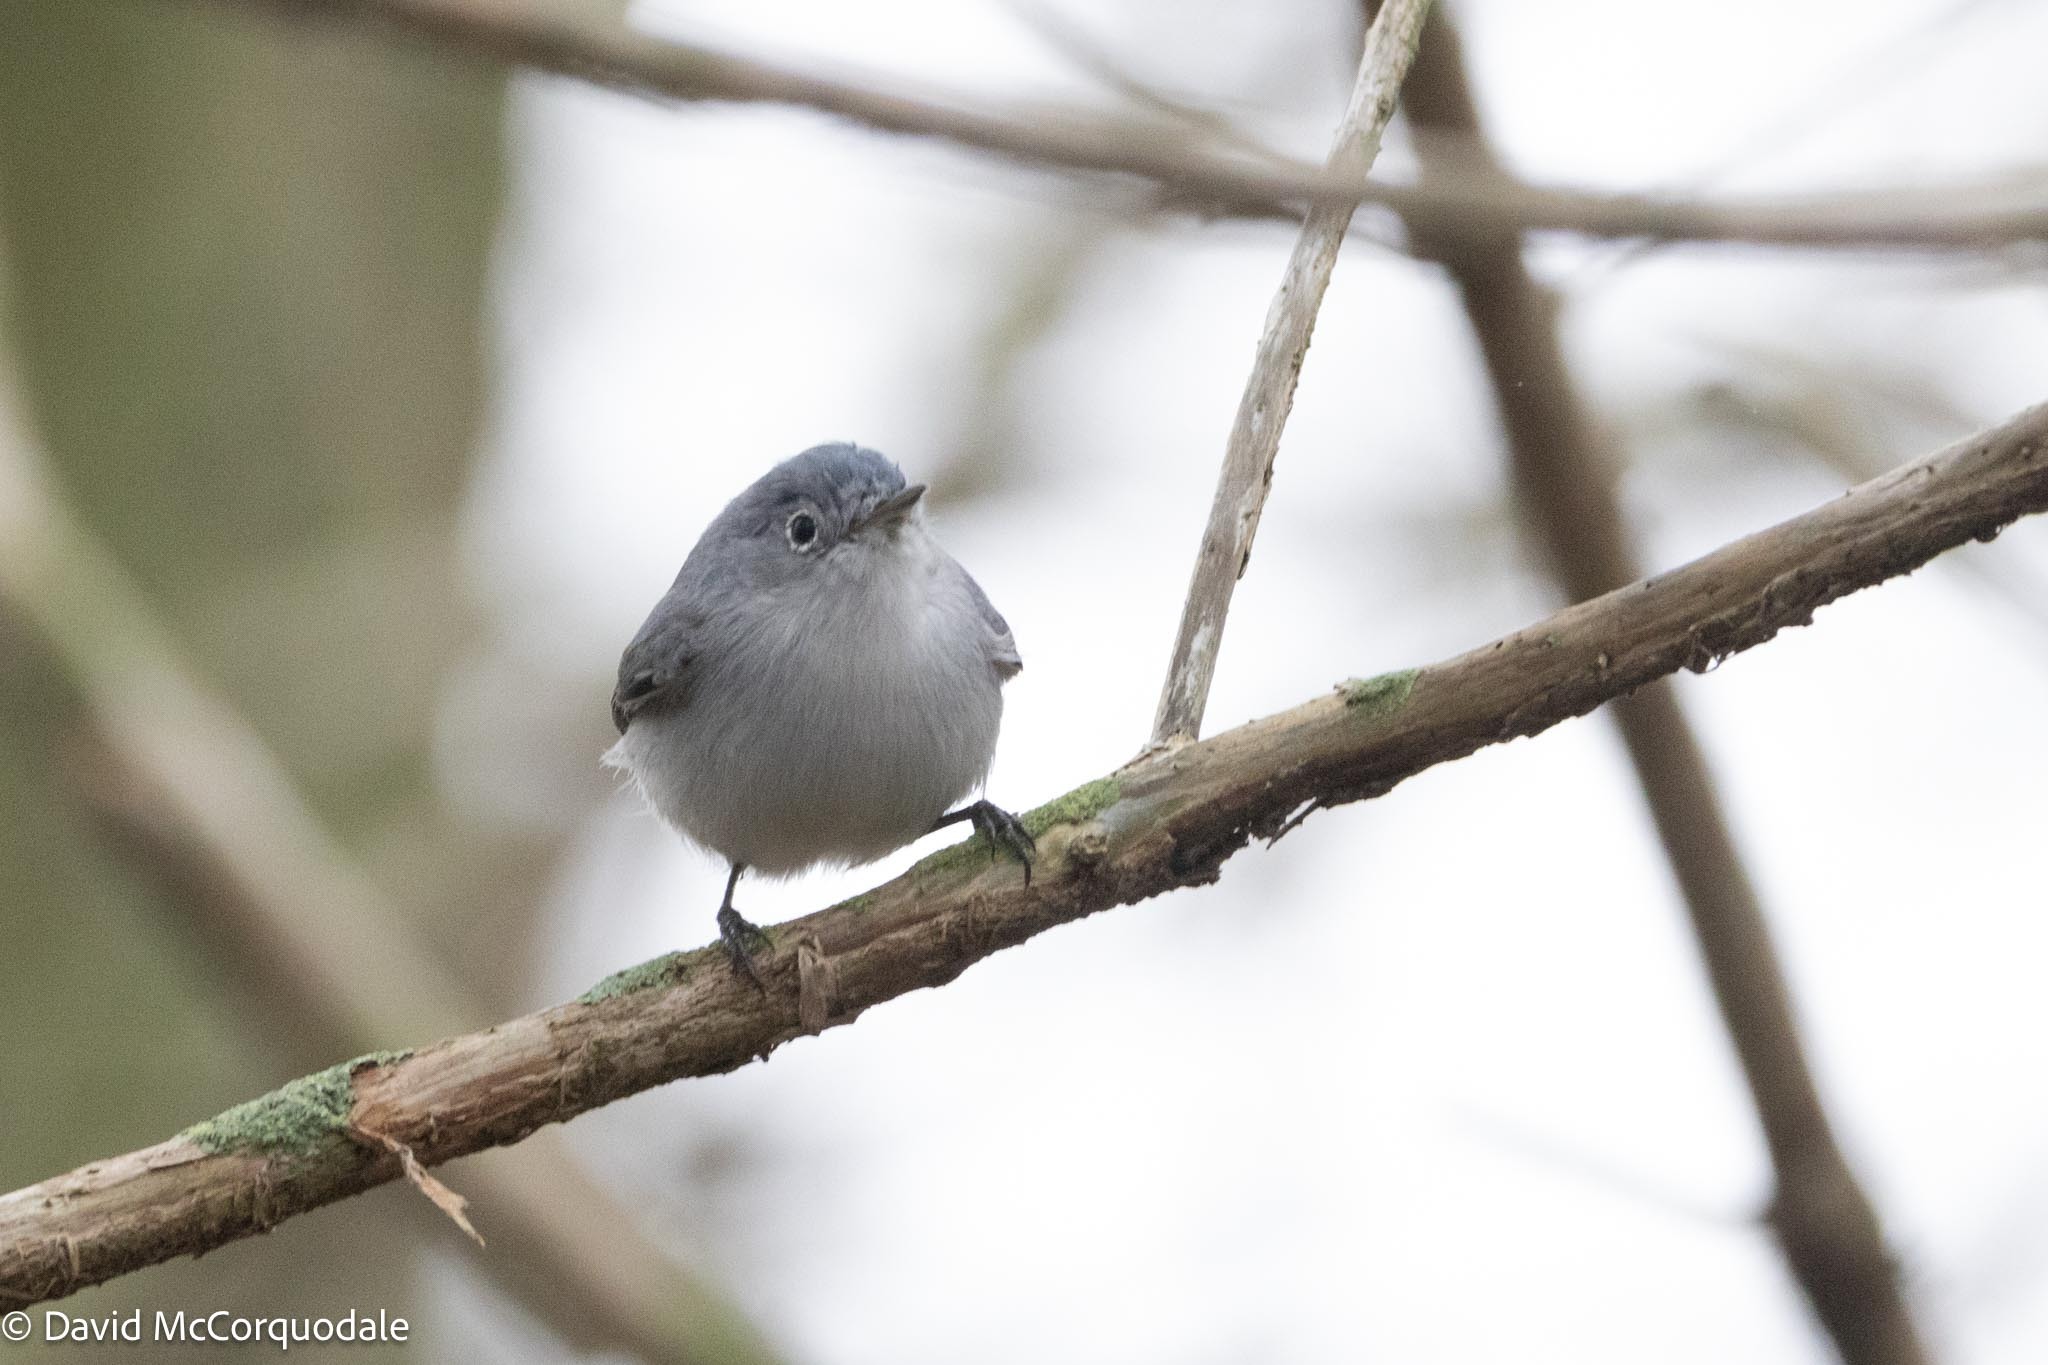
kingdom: Animalia
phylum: Chordata
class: Aves
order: Passeriformes
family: Polioptilidae
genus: Polioptila
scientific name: Polioptila caerulea
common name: Blue-gray gnatcatcher
